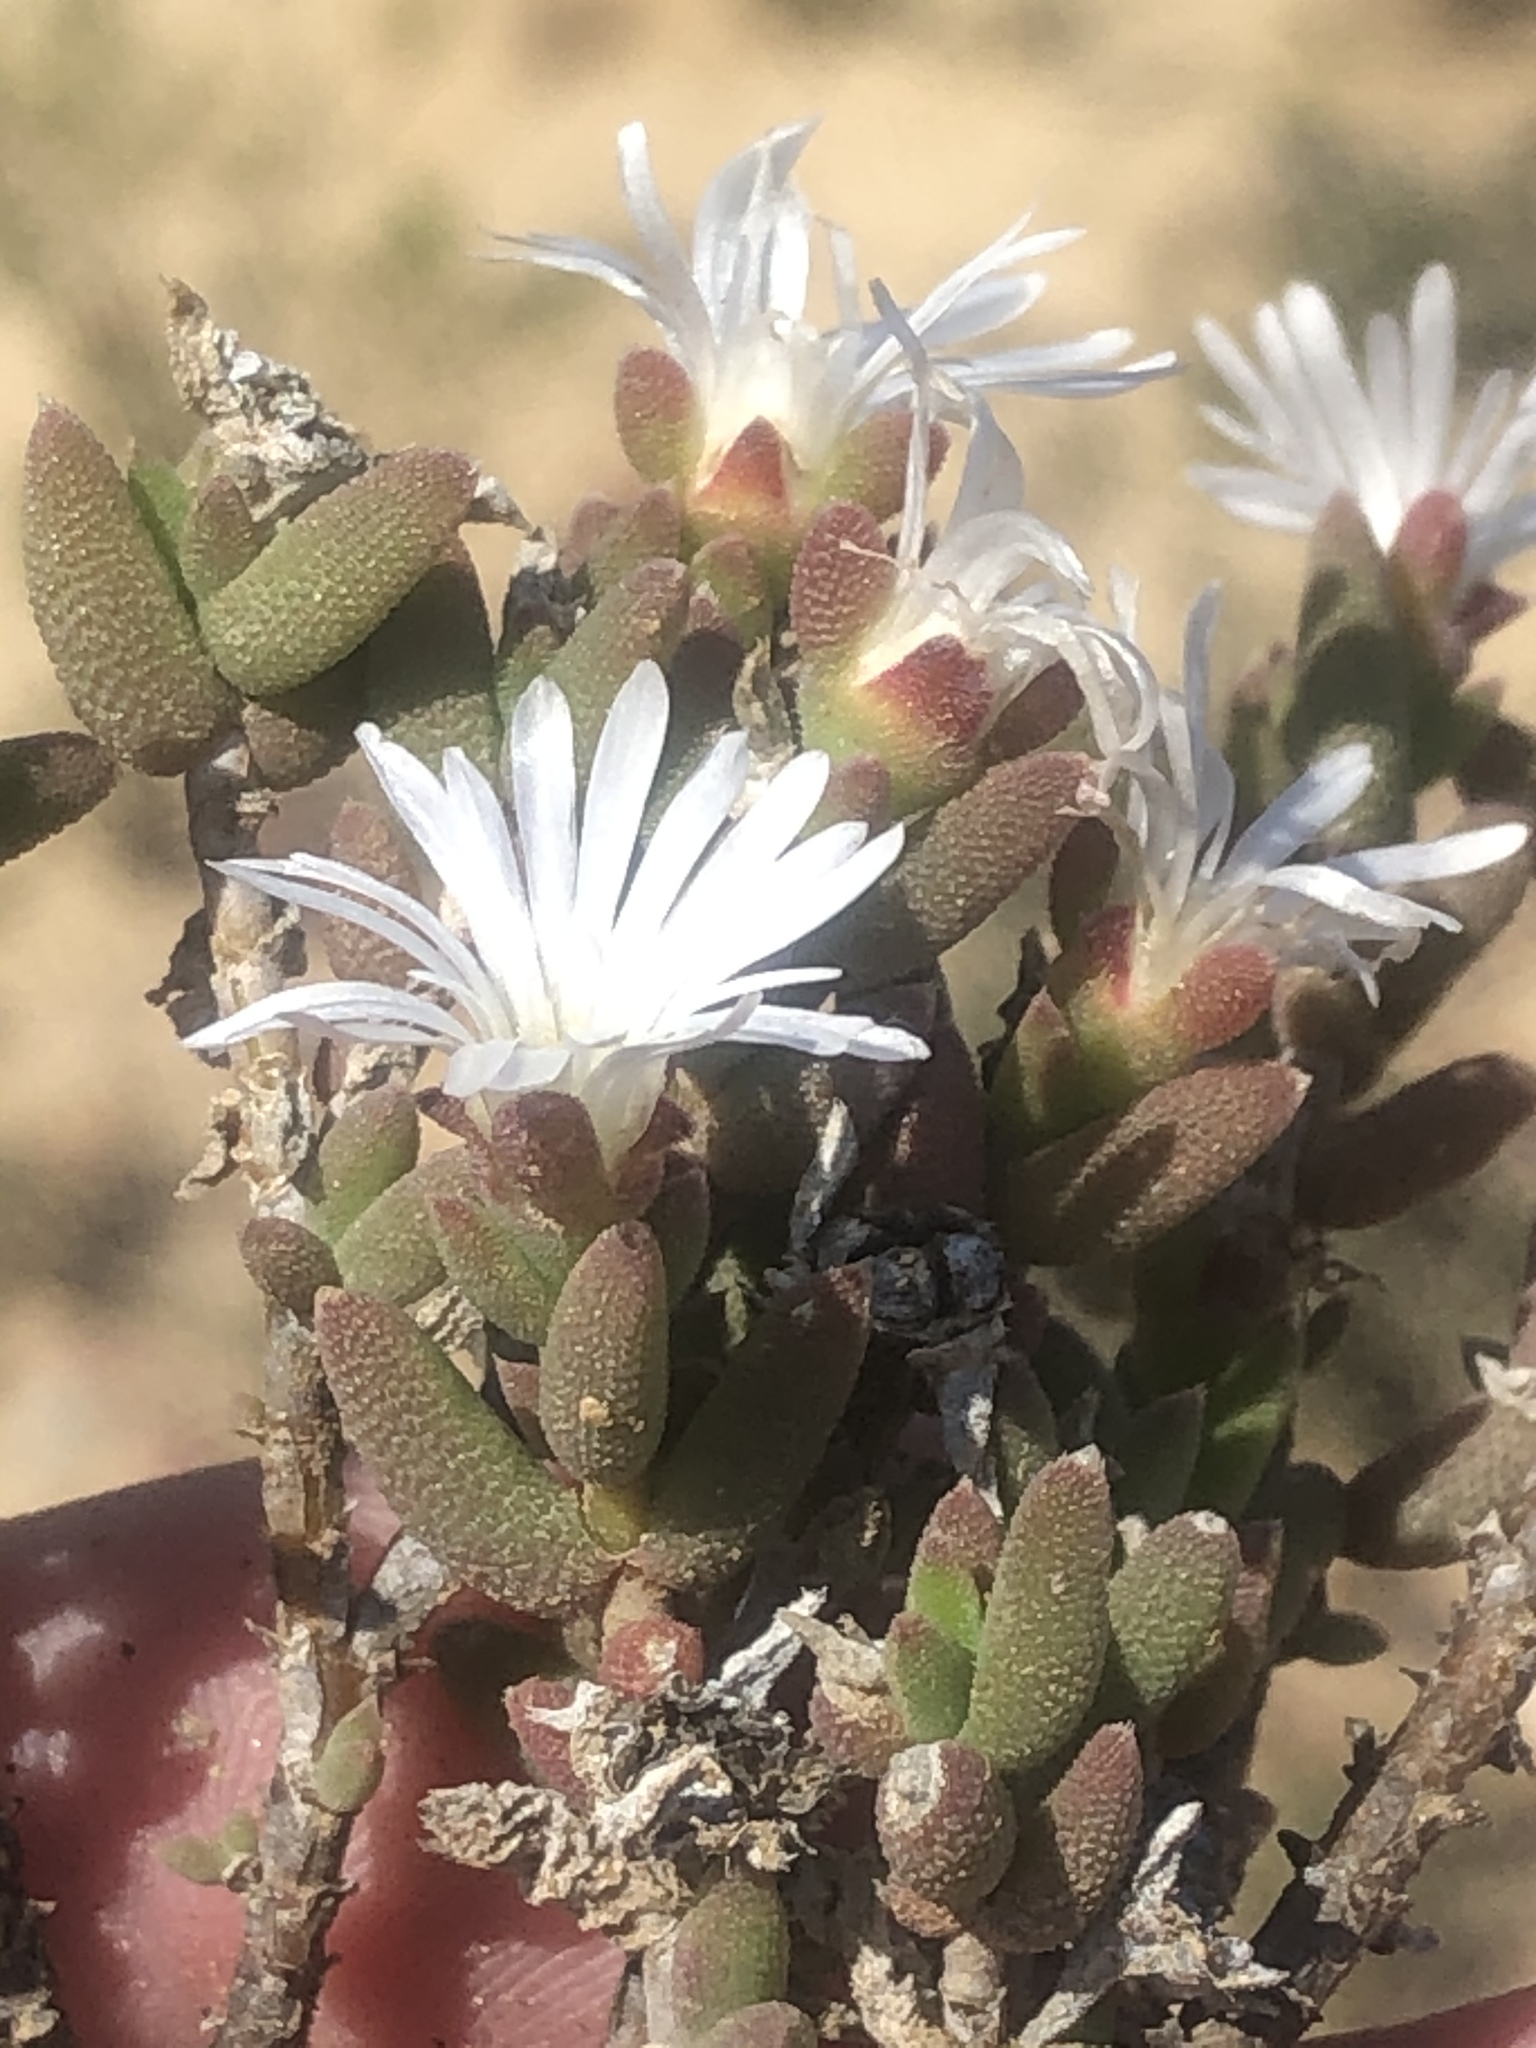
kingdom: Plantae
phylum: Tracheophyta
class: Magnoliopsida
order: Caryophyllales
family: Aizoaceae
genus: Trichodiadema
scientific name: Trichodiadema attonsum
